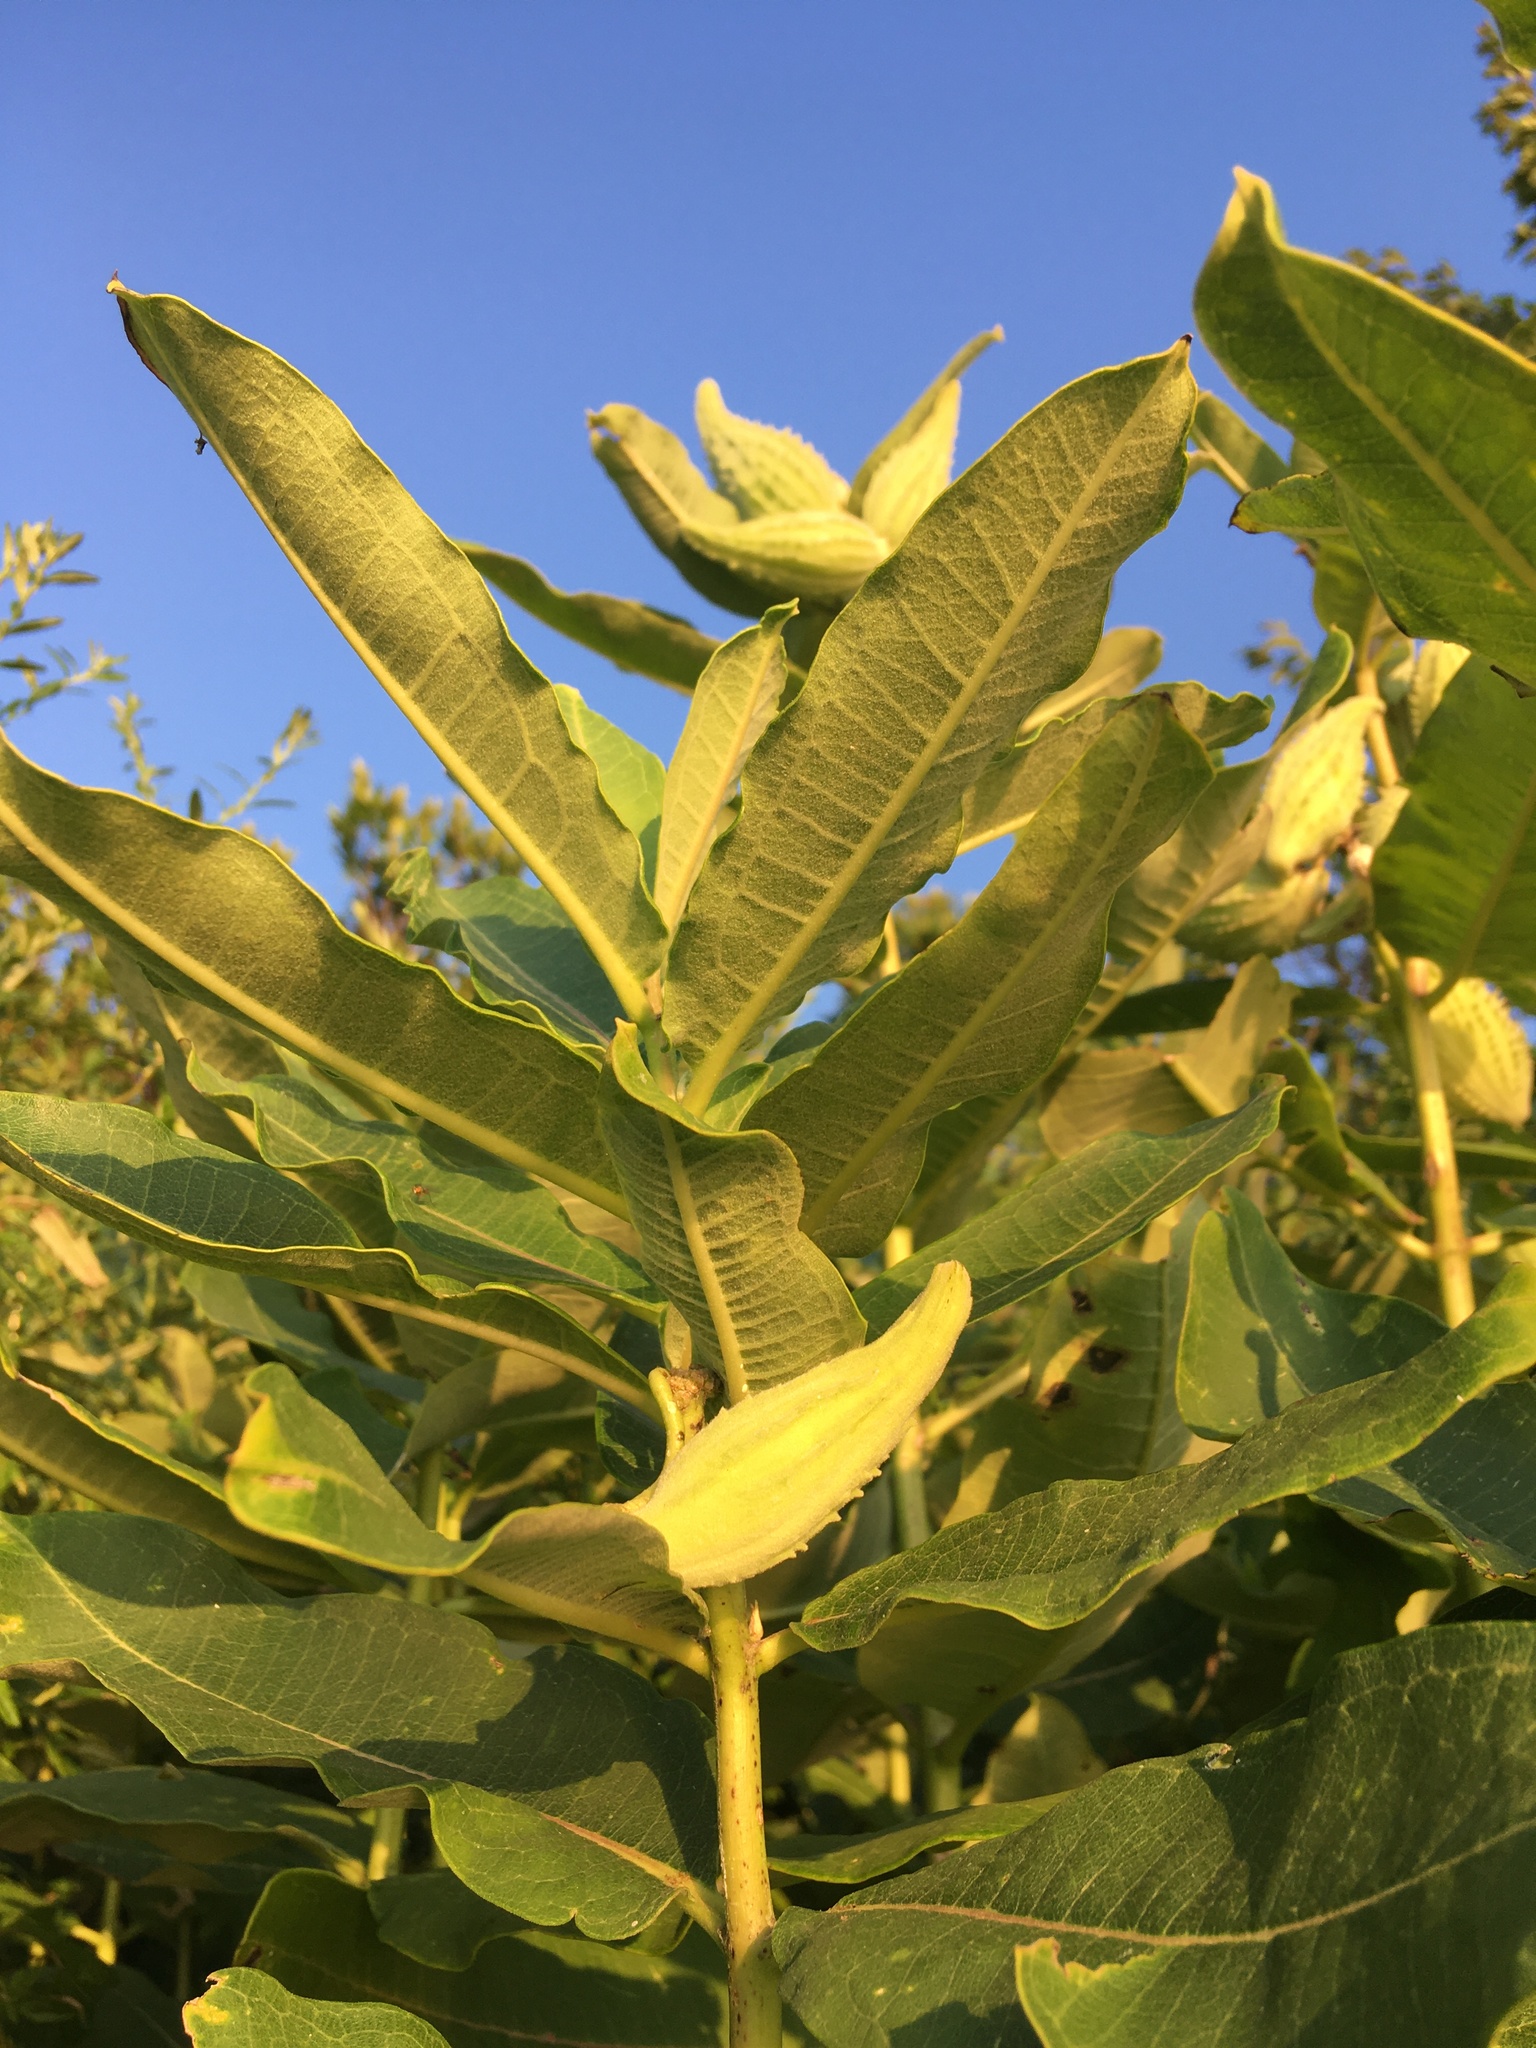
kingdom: Plantae
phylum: Tracheophyta
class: Magnoliopsida
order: Gentianales
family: Apocynaceae
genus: Asclepias
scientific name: Asclepias syriaca
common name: Common milkweed
